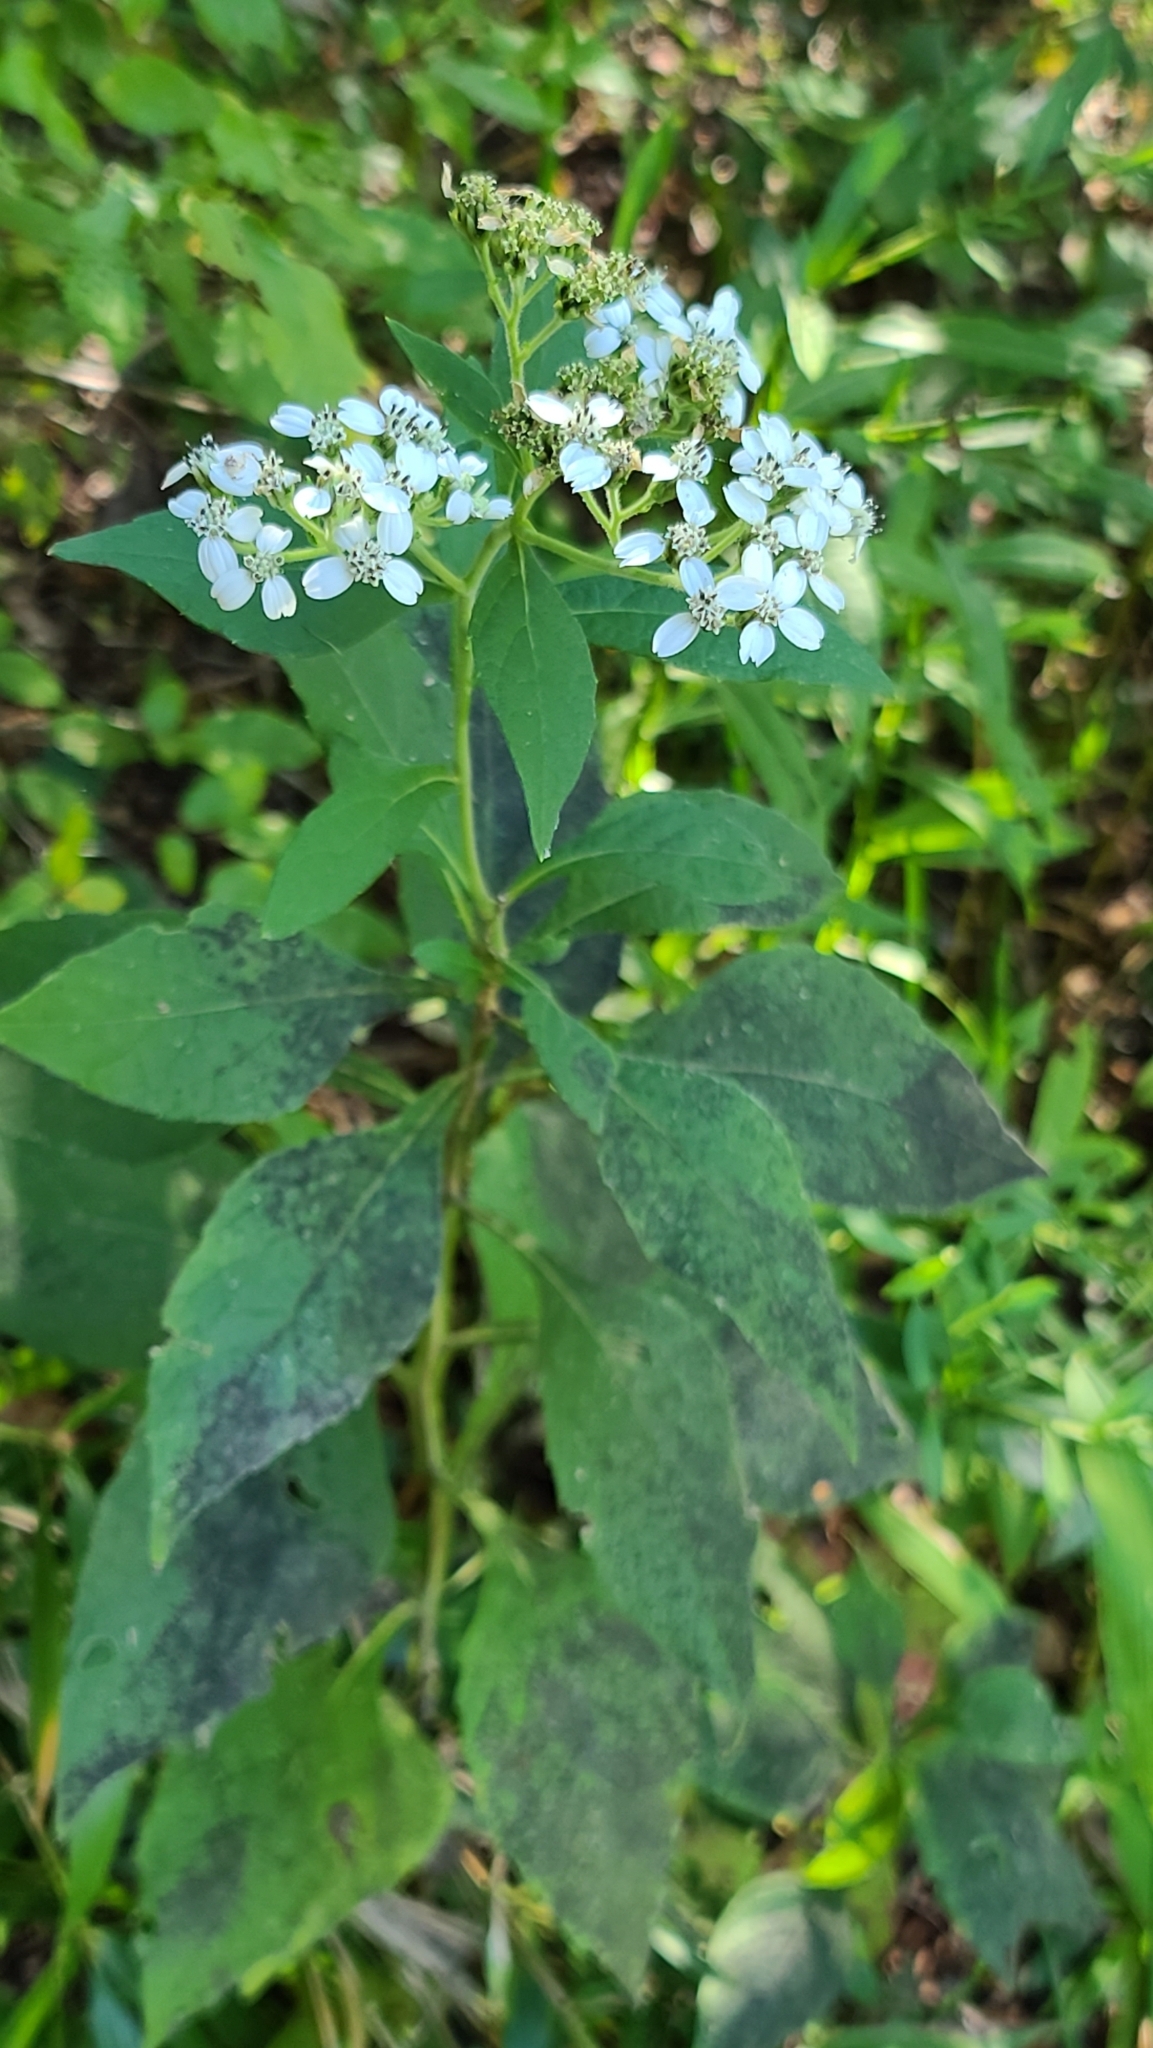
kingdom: Plantae
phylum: Tracheophyta
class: Magnoliopsida
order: Asterales
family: Asteraceae
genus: Verbesina
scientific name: Verbesina virginica
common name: Frostweed
